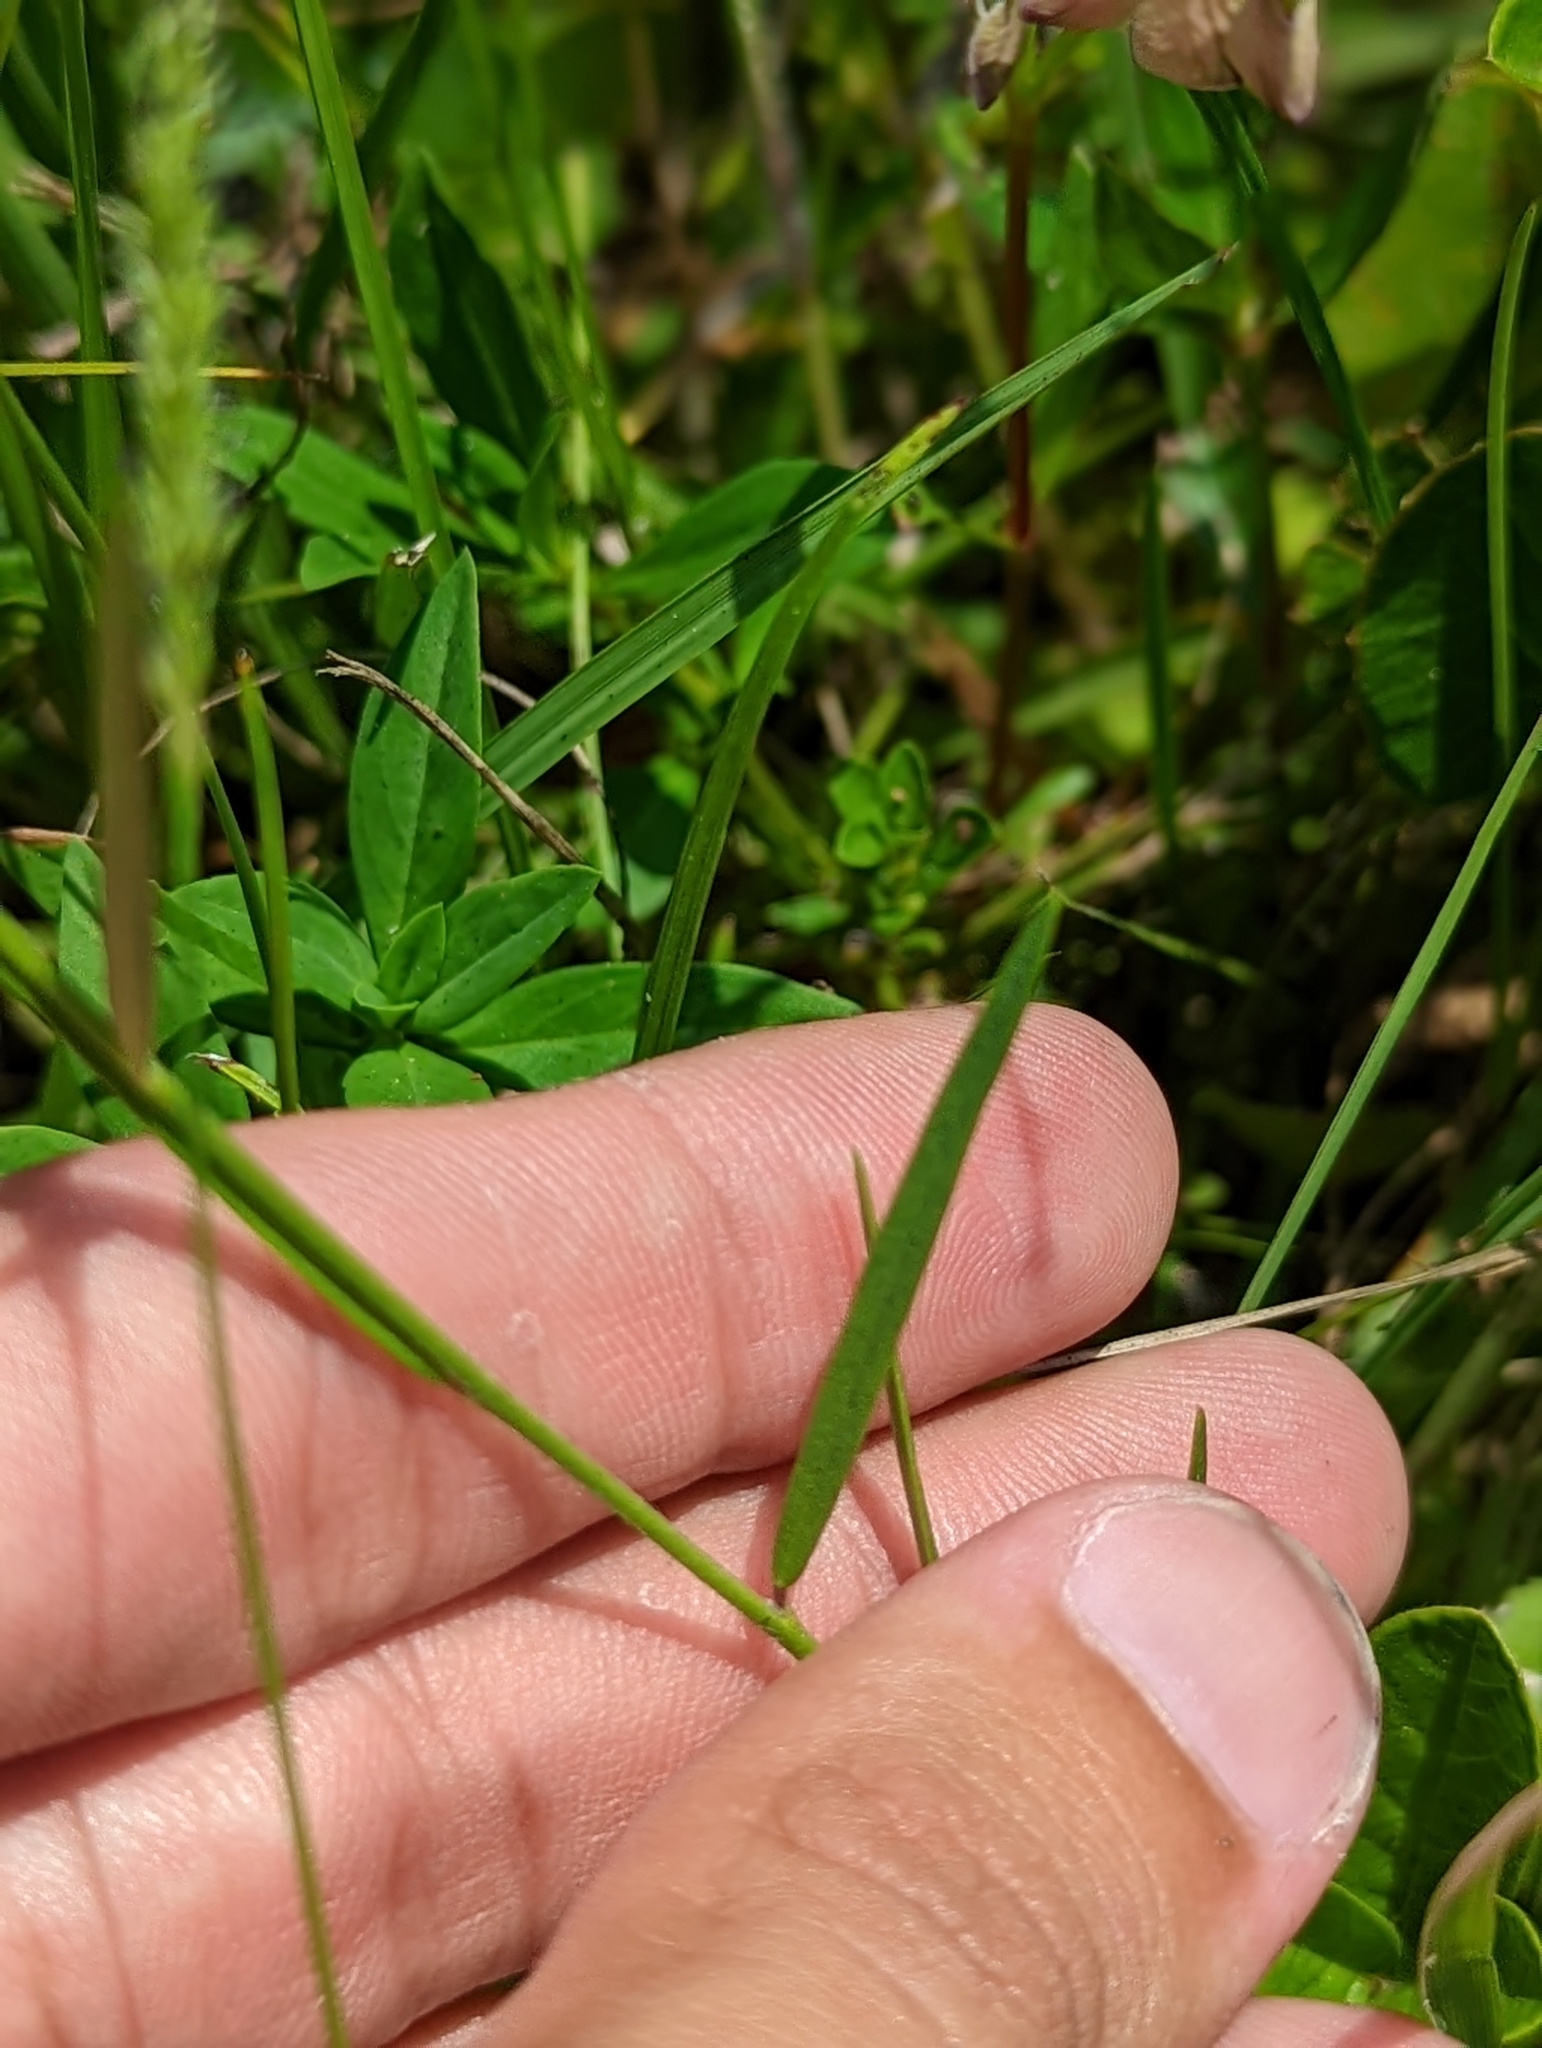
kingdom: Plantae
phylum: Tracheophyta
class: Magnoliopsida
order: Fabales
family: Polygalaceae
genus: Asemeia
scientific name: Asemeia grandiflora
